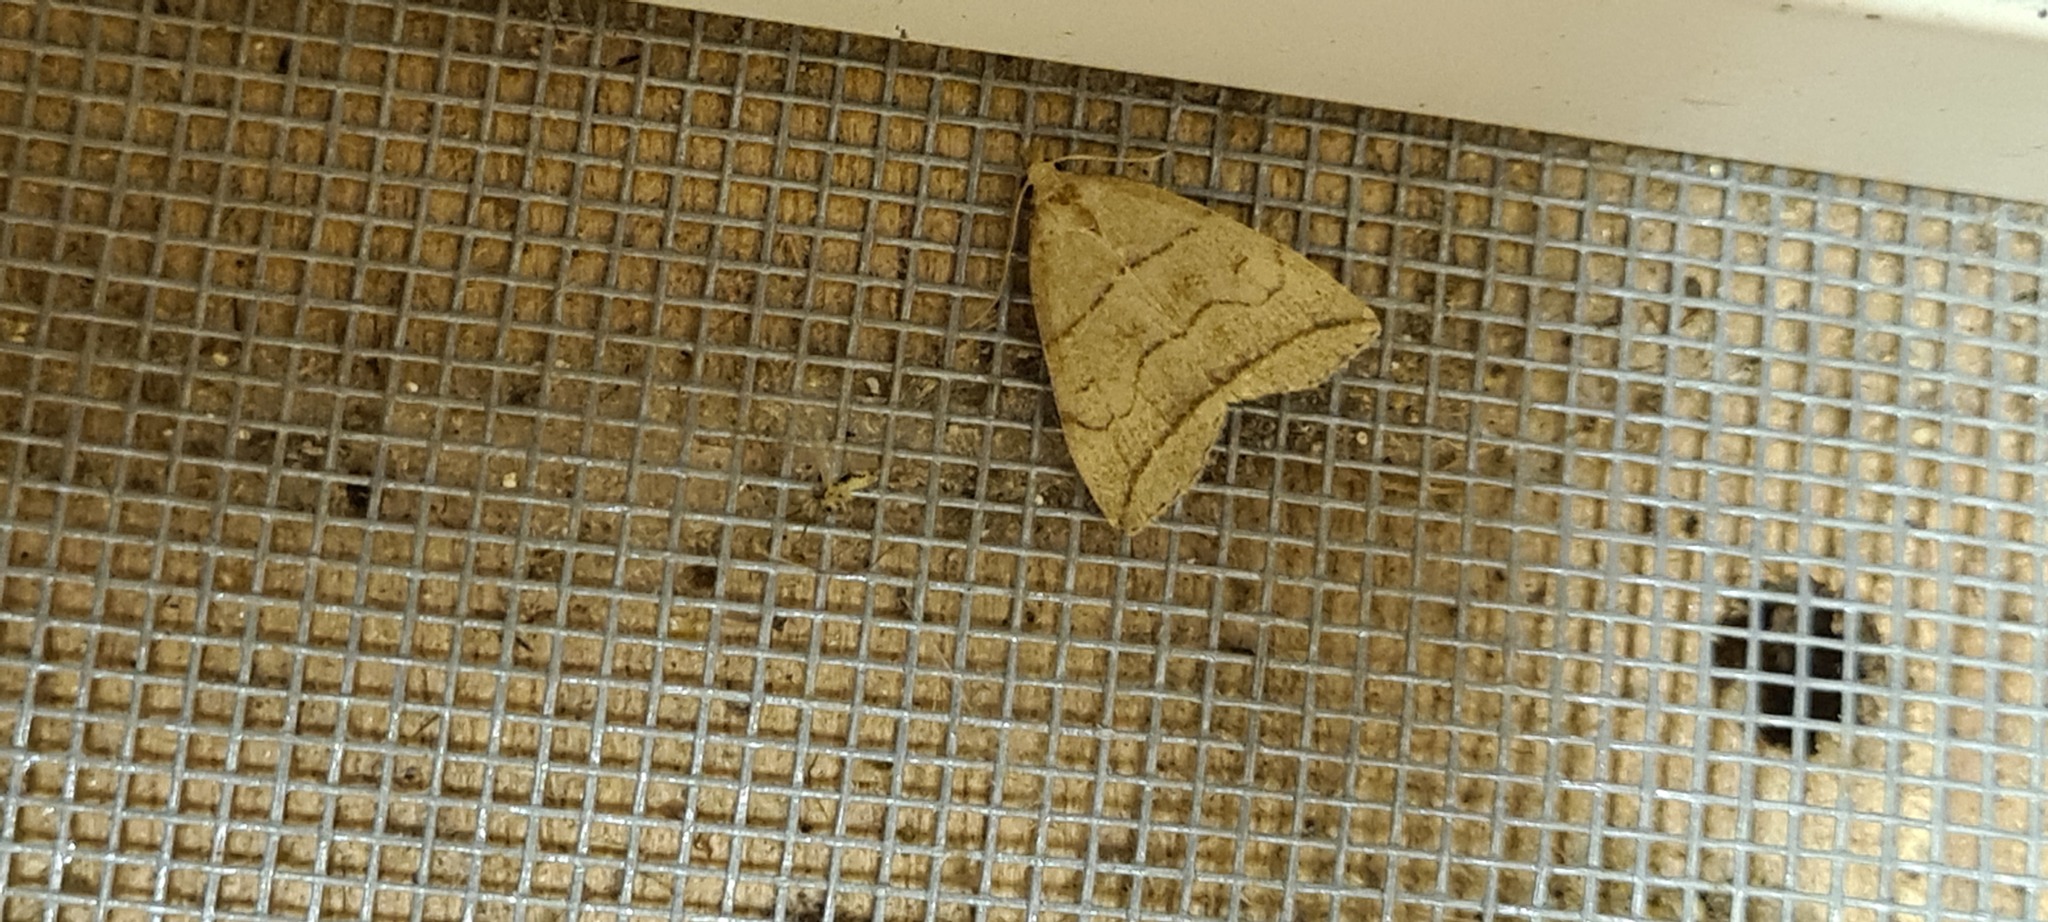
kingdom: Animalia
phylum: Arthropoda
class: Insecta
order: Lepidoptera
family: Erebidae
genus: Herminia
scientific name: Herminia grisealis
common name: Small fan-foot
